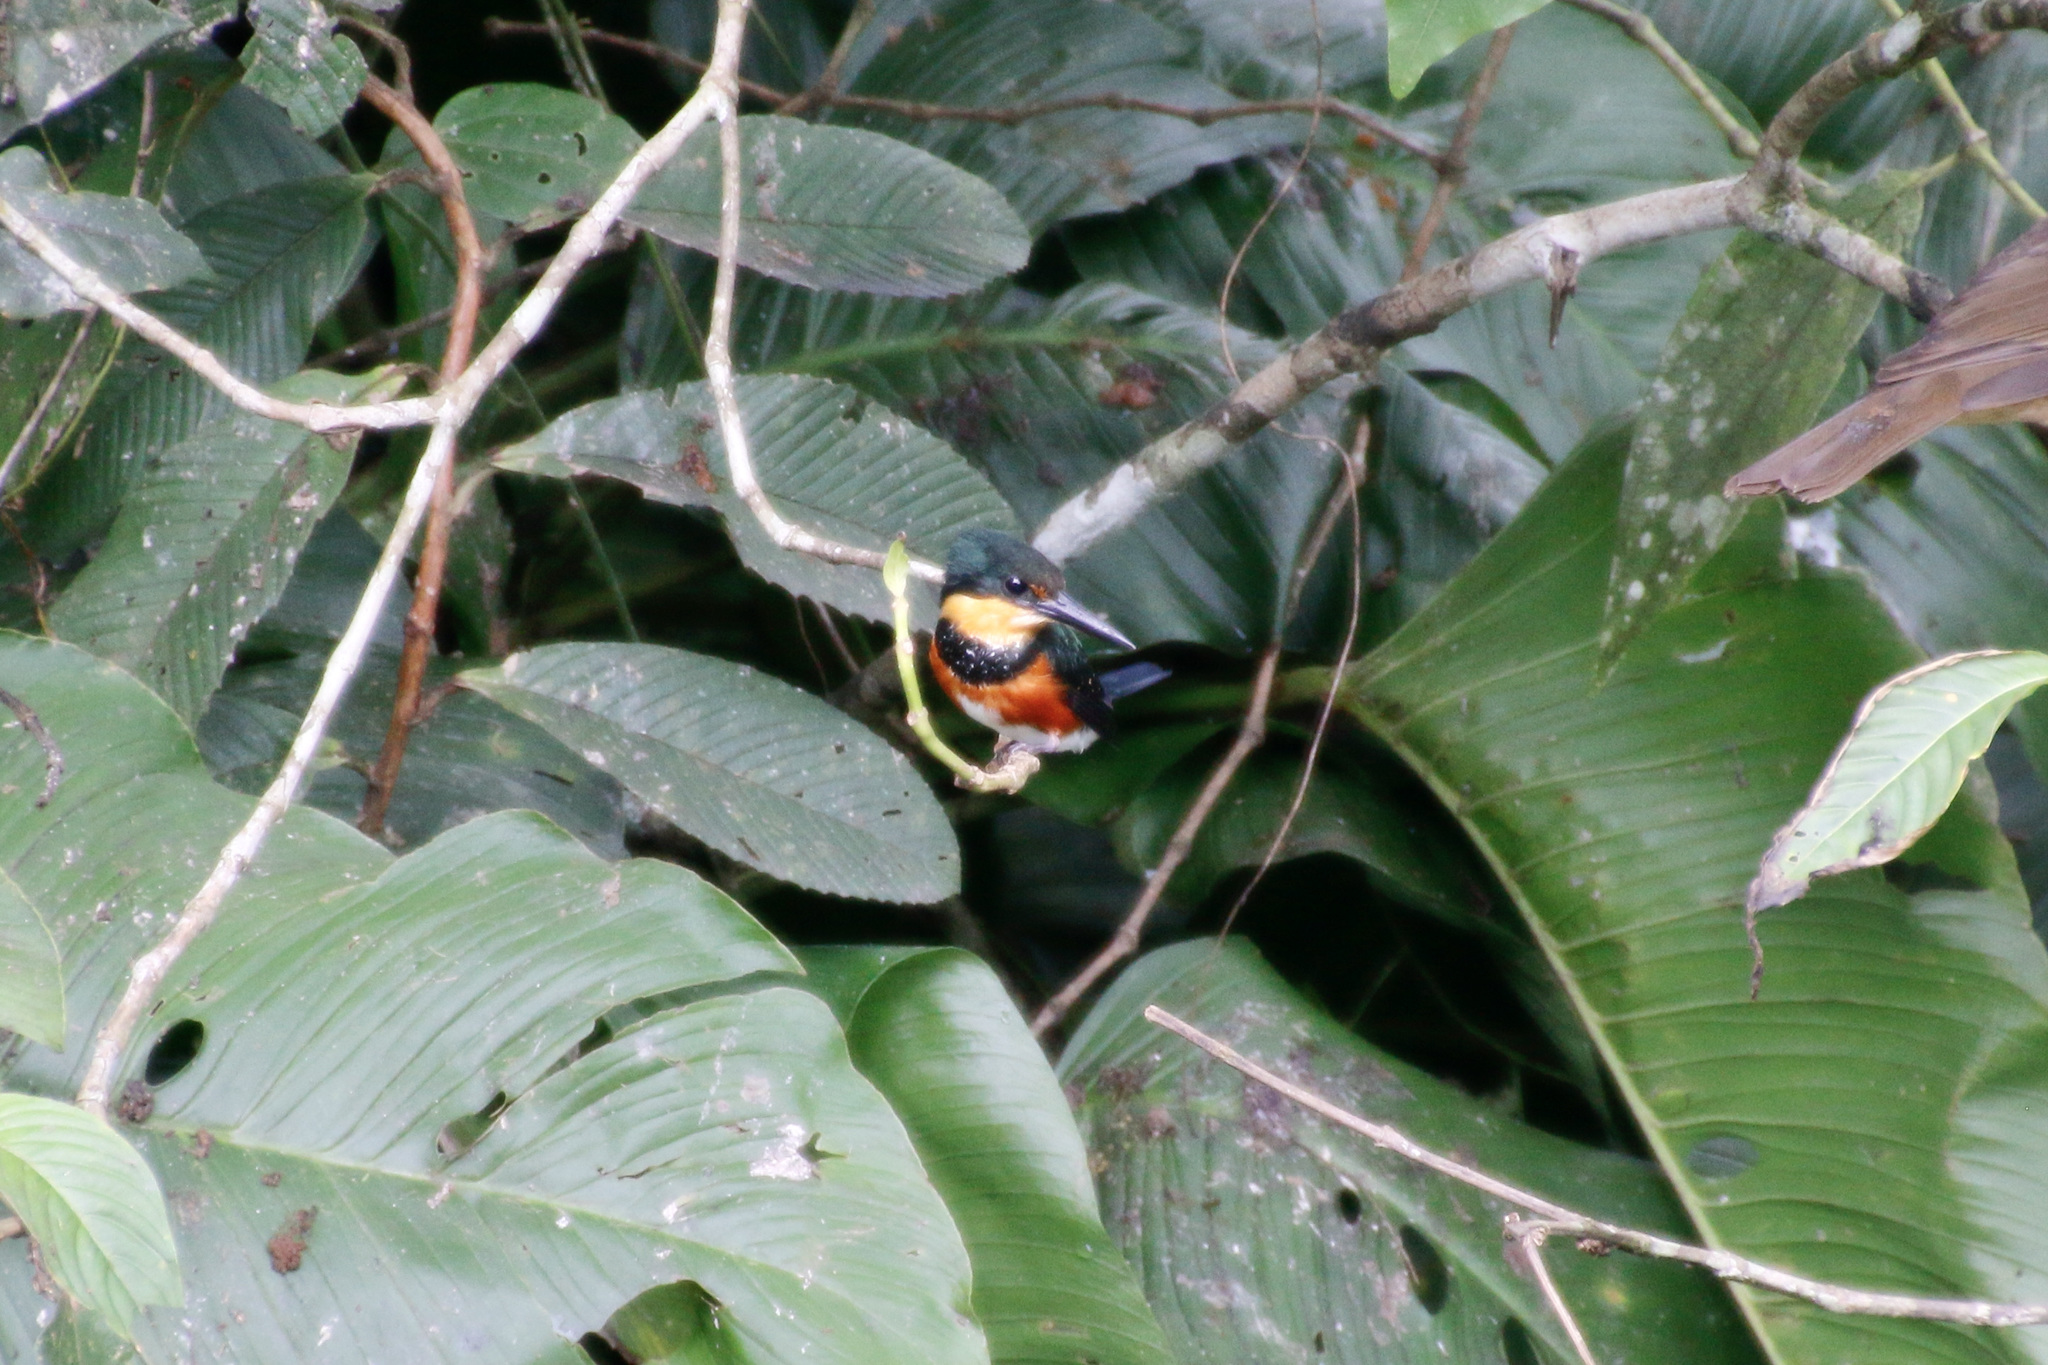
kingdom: Animalia
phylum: Chordata
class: Aves
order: Coraciiformes
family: Alcedinidae
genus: Chloroceryle
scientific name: Chloroceryle aenea
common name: American pygmy kingfisher
